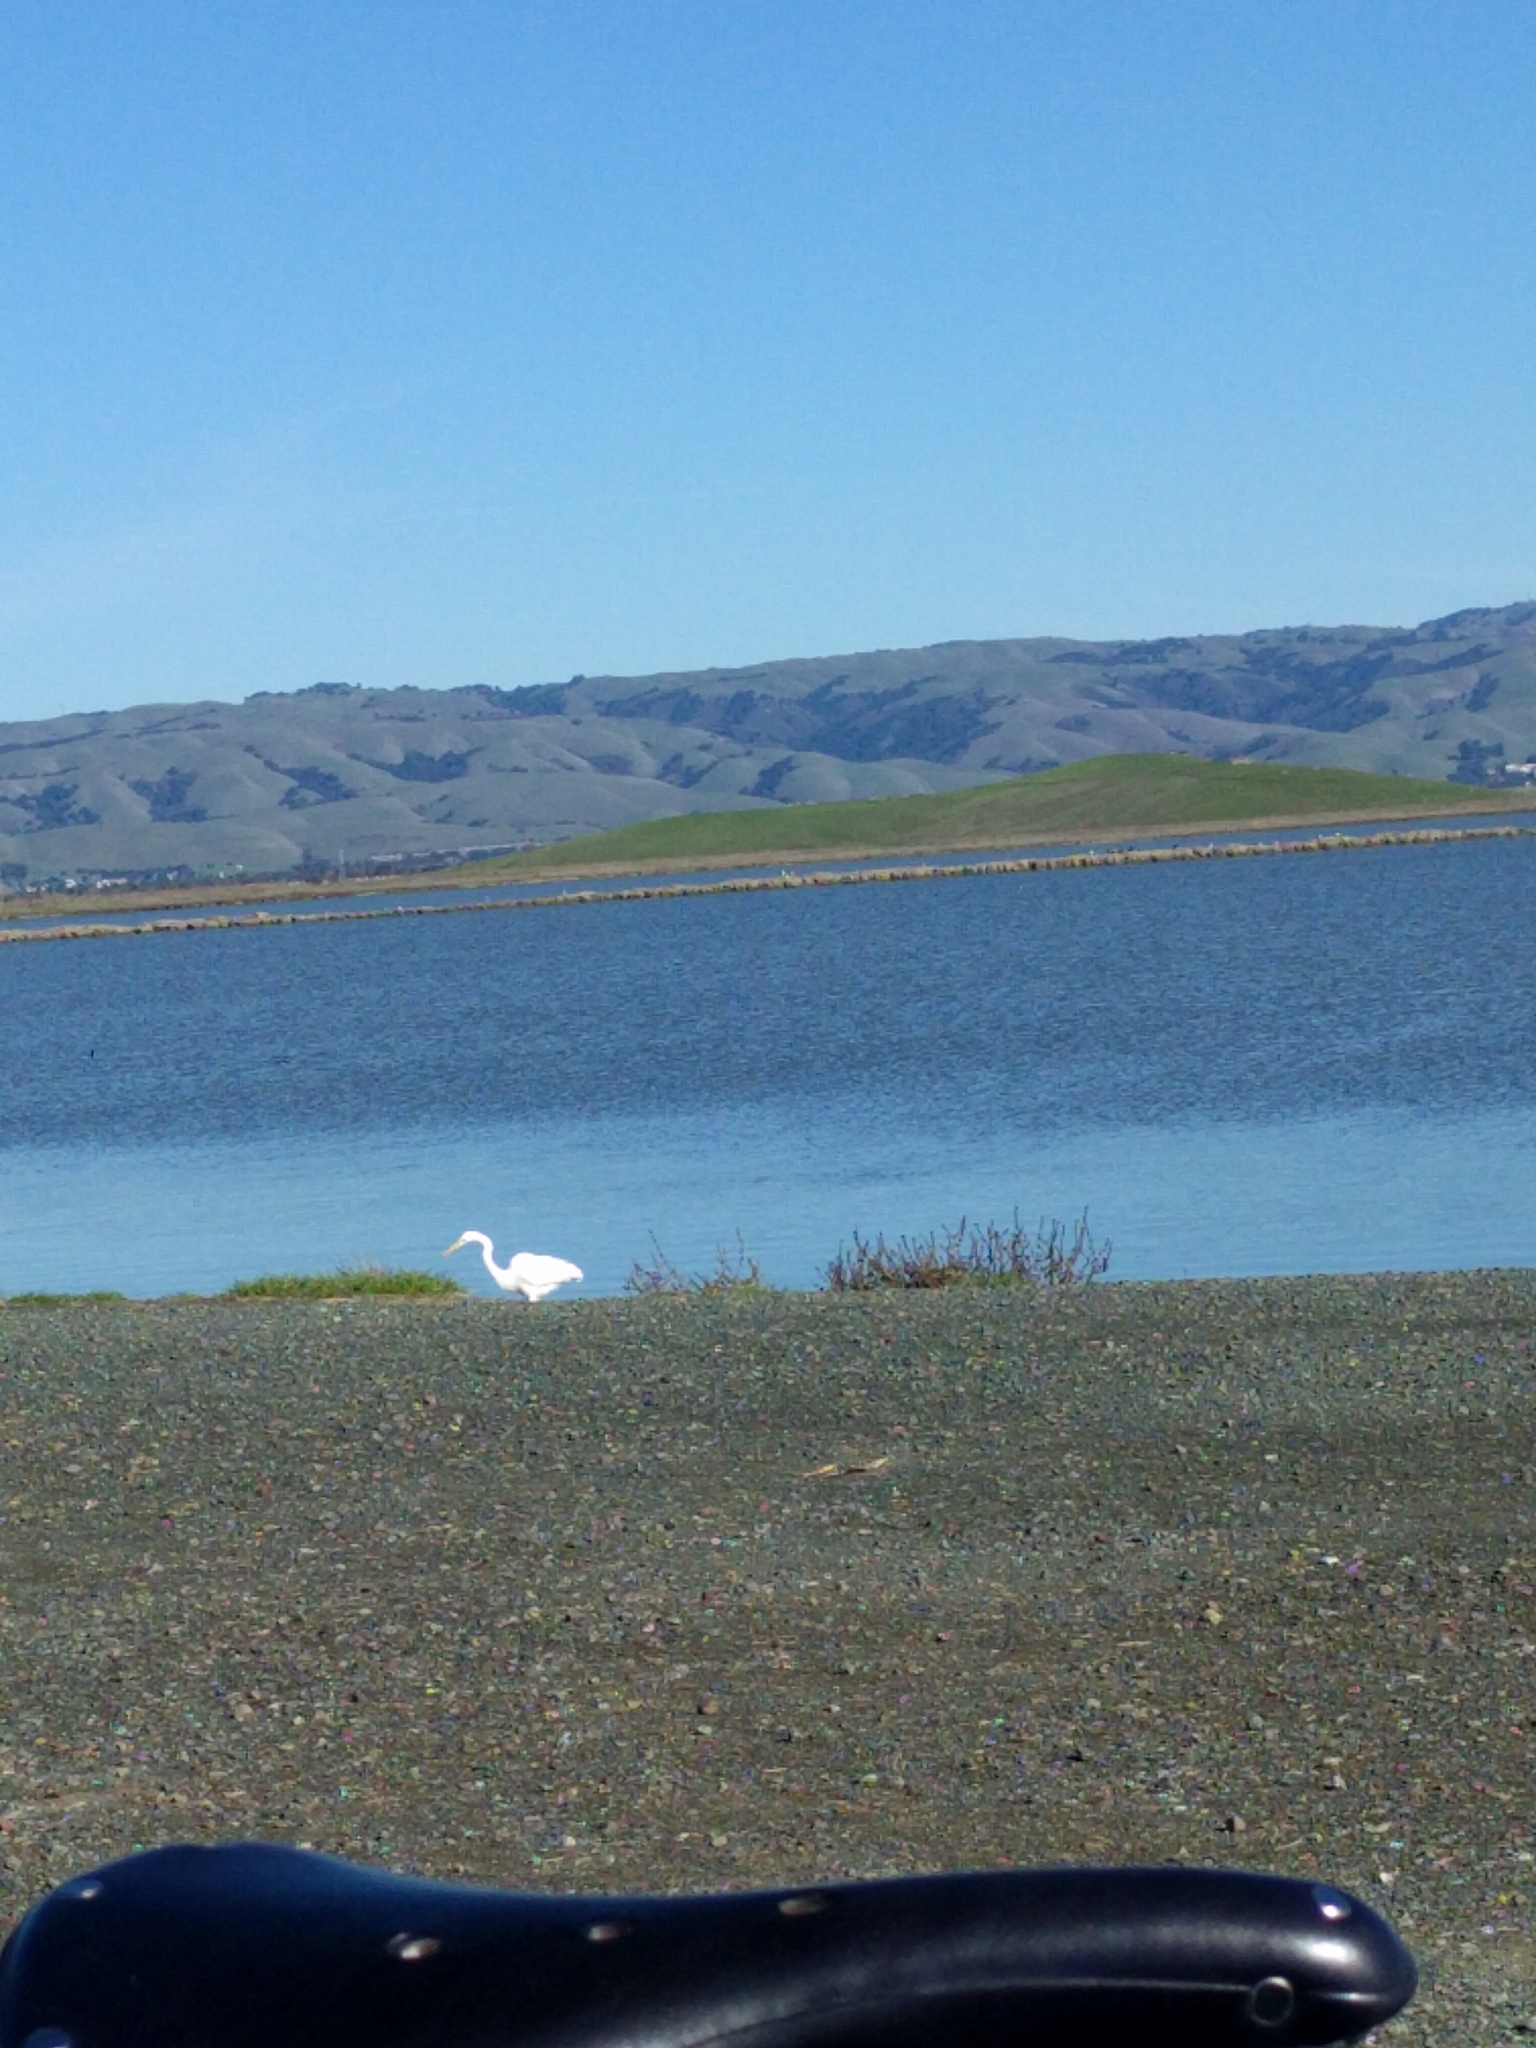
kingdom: Animalia
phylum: Chordata
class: Aves
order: Pelecaniformes
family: Ardeidae
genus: Ardea
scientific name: Ardea alba
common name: Great egret
